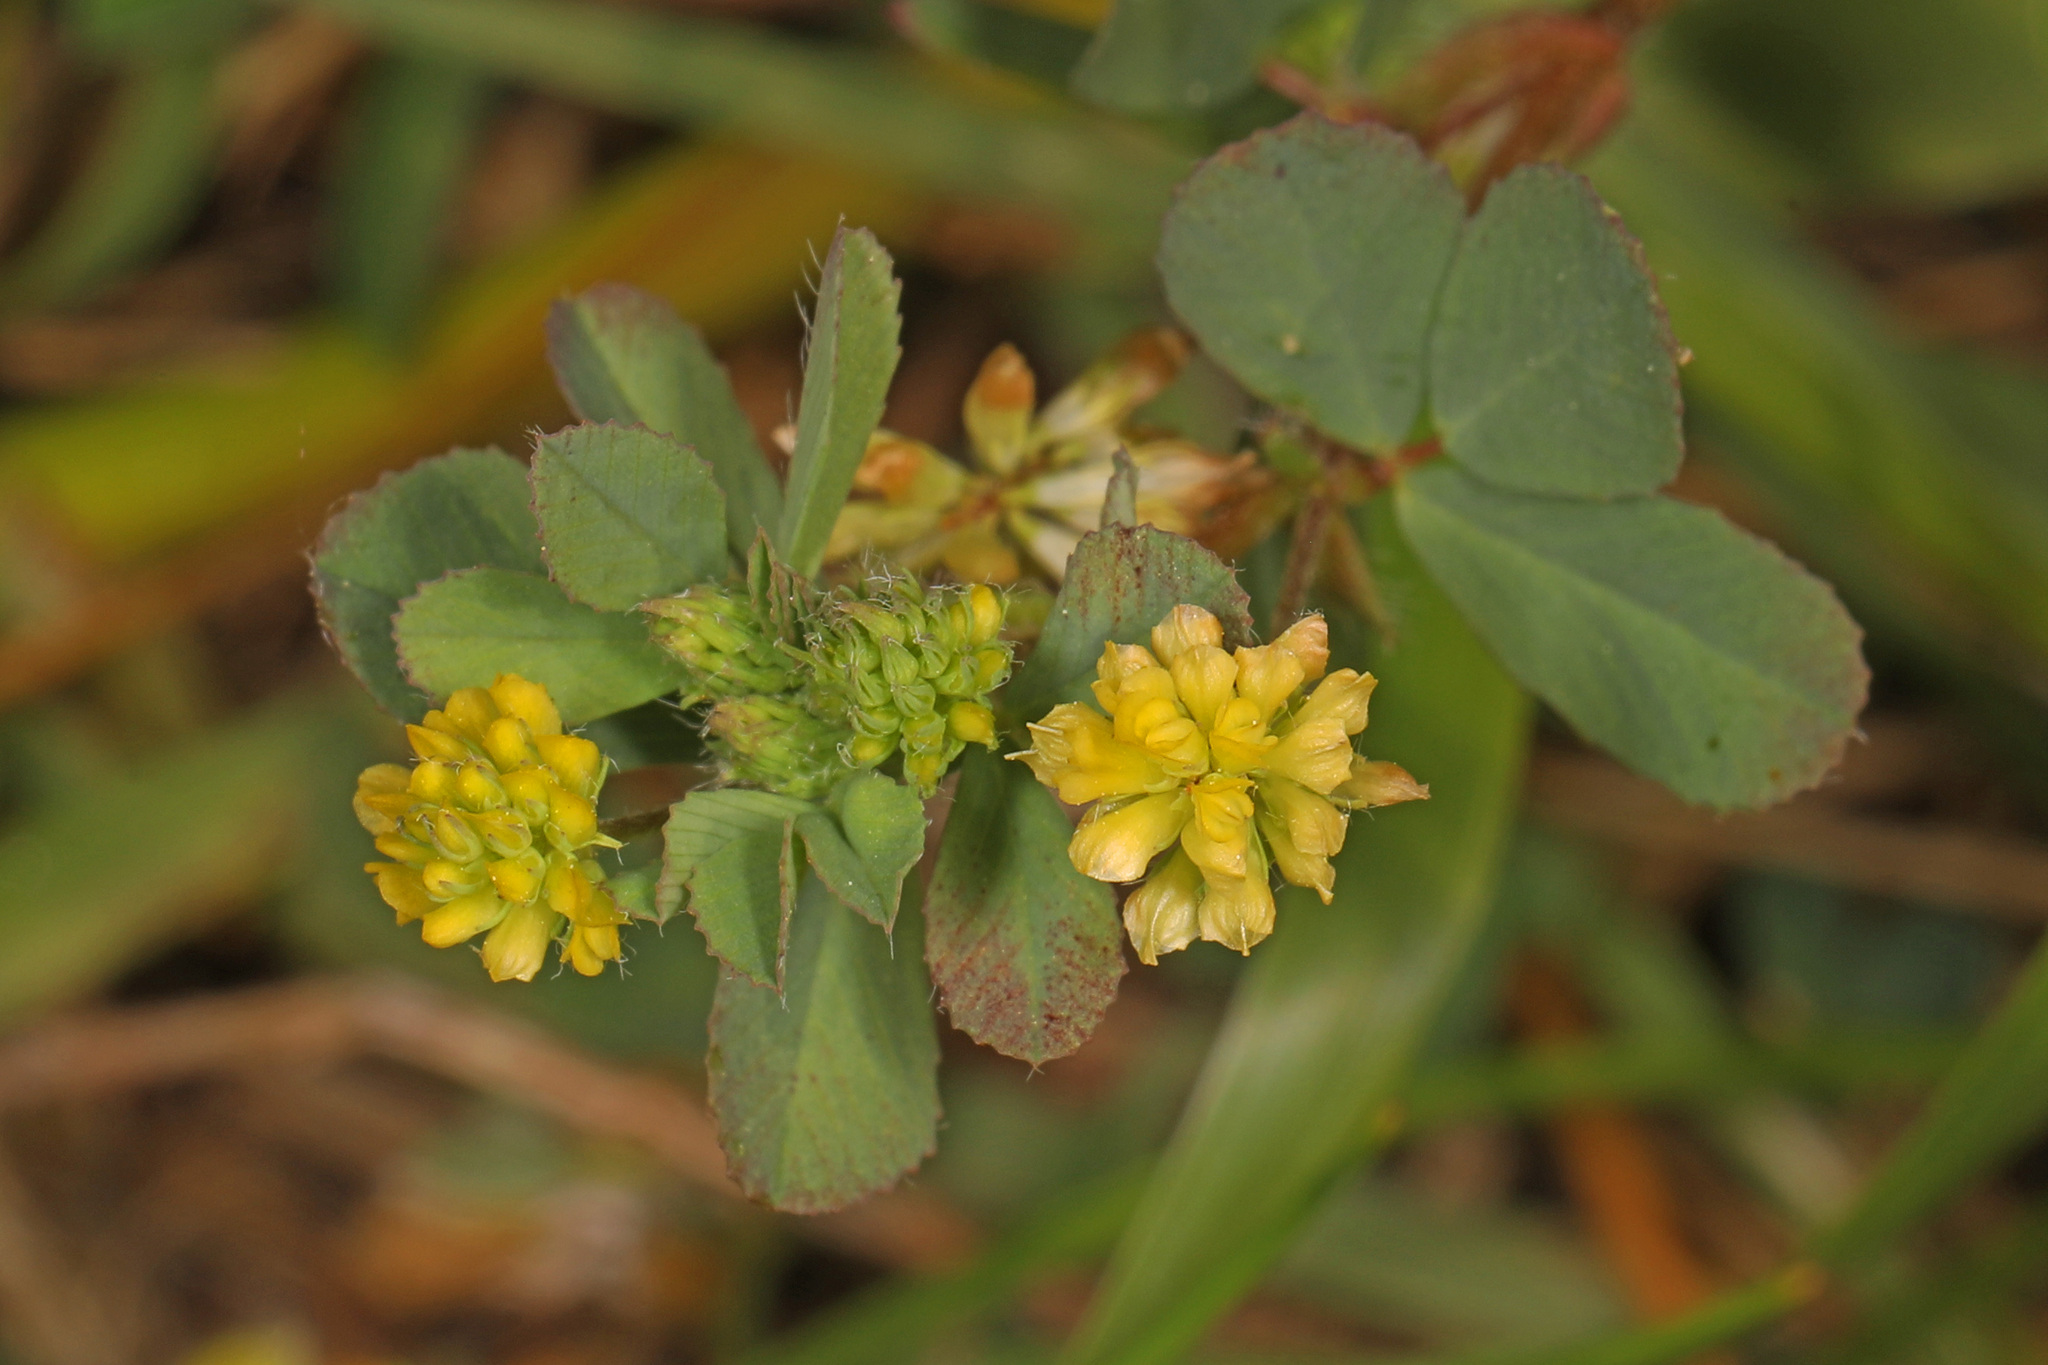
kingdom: Plantae
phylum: Tracheophyta
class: Magnoliopsida
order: Fabales
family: Fabaceae
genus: Trifolium
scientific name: Trifolium dubium
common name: Suckling clover
